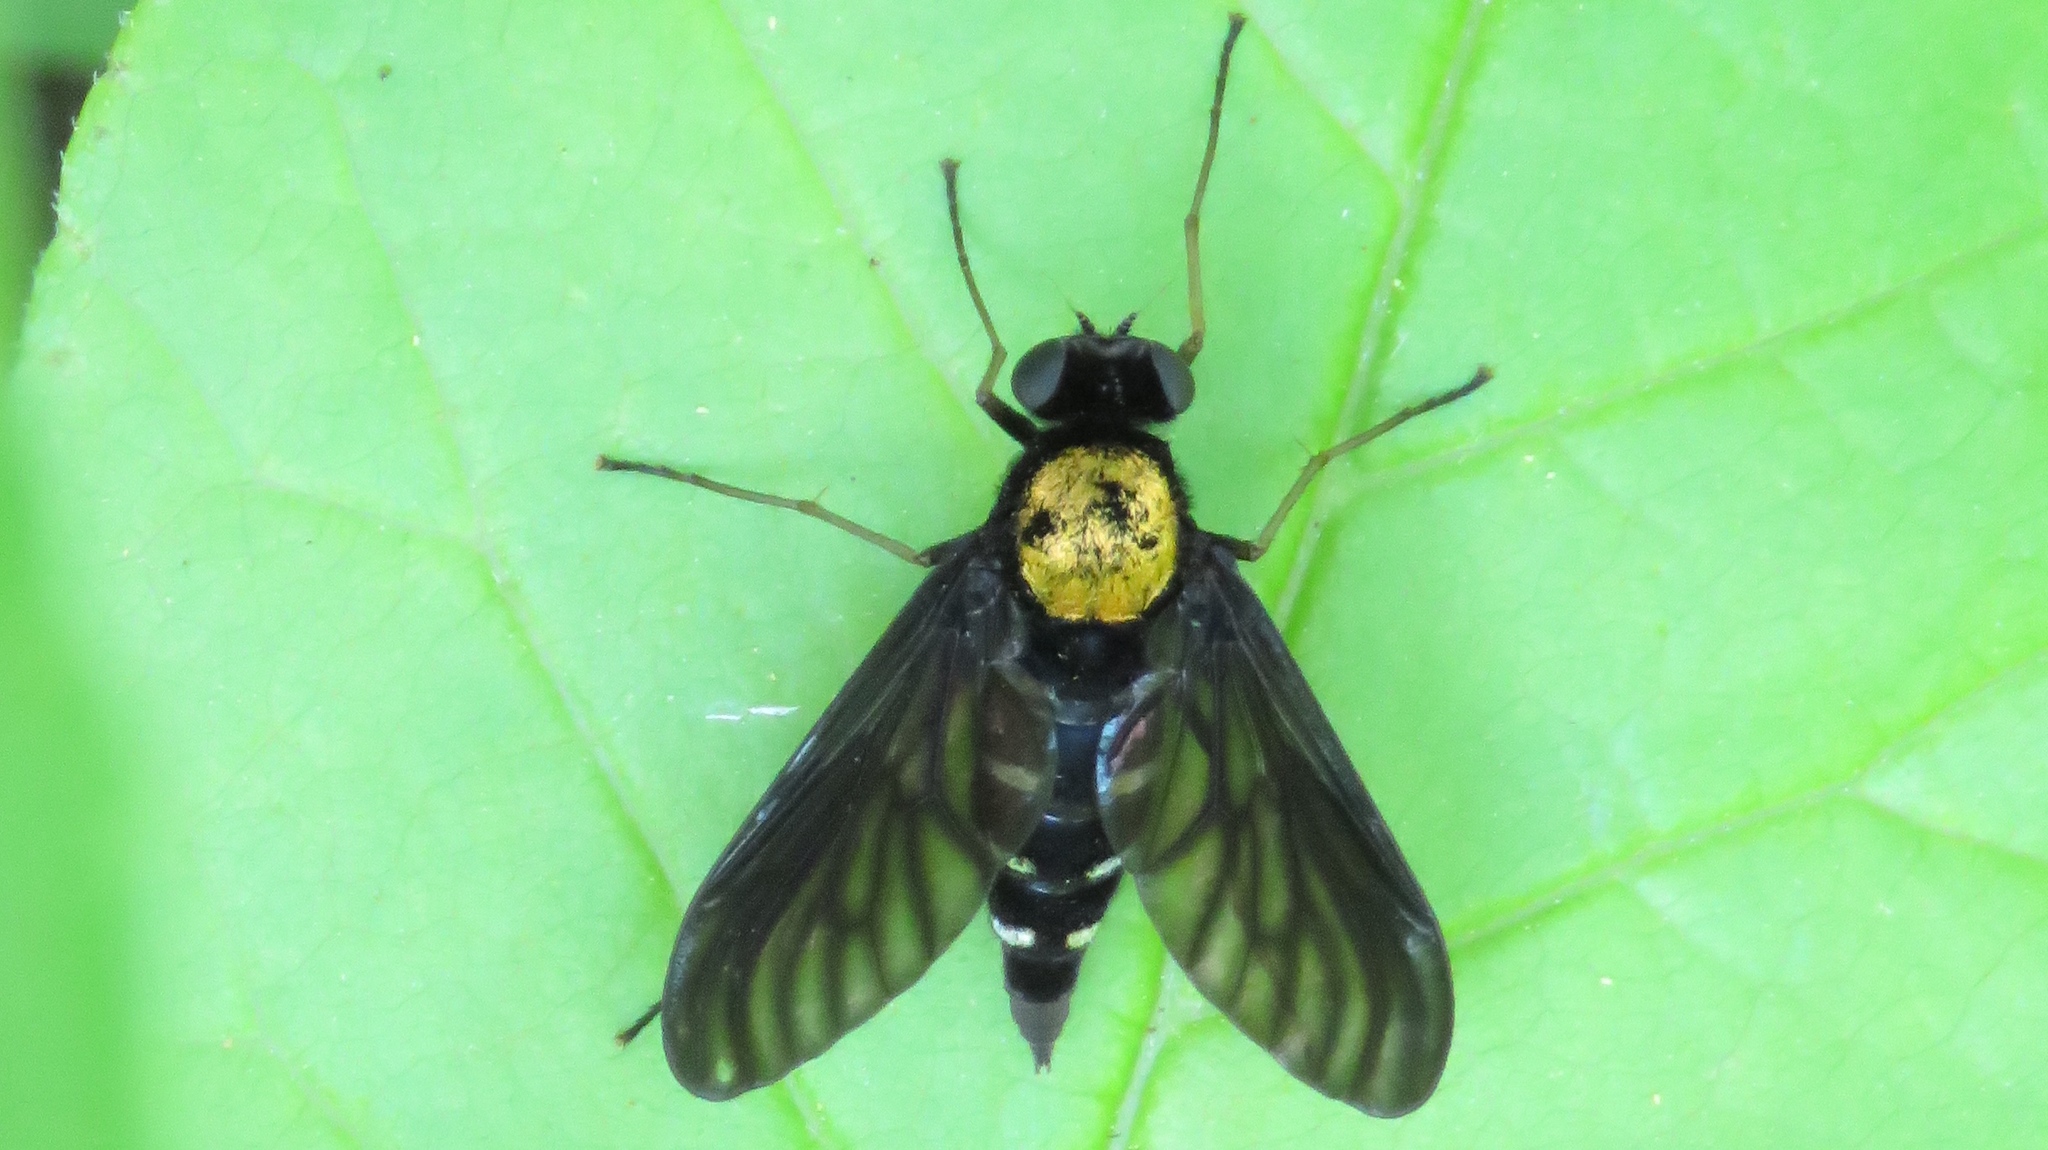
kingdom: Animalia
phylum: Arthropoda
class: Insecta
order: Diptera
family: Rhagionidae
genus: Chrysopilus
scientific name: Chrysopilus thoracicus
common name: Golden-backed snipe fly
